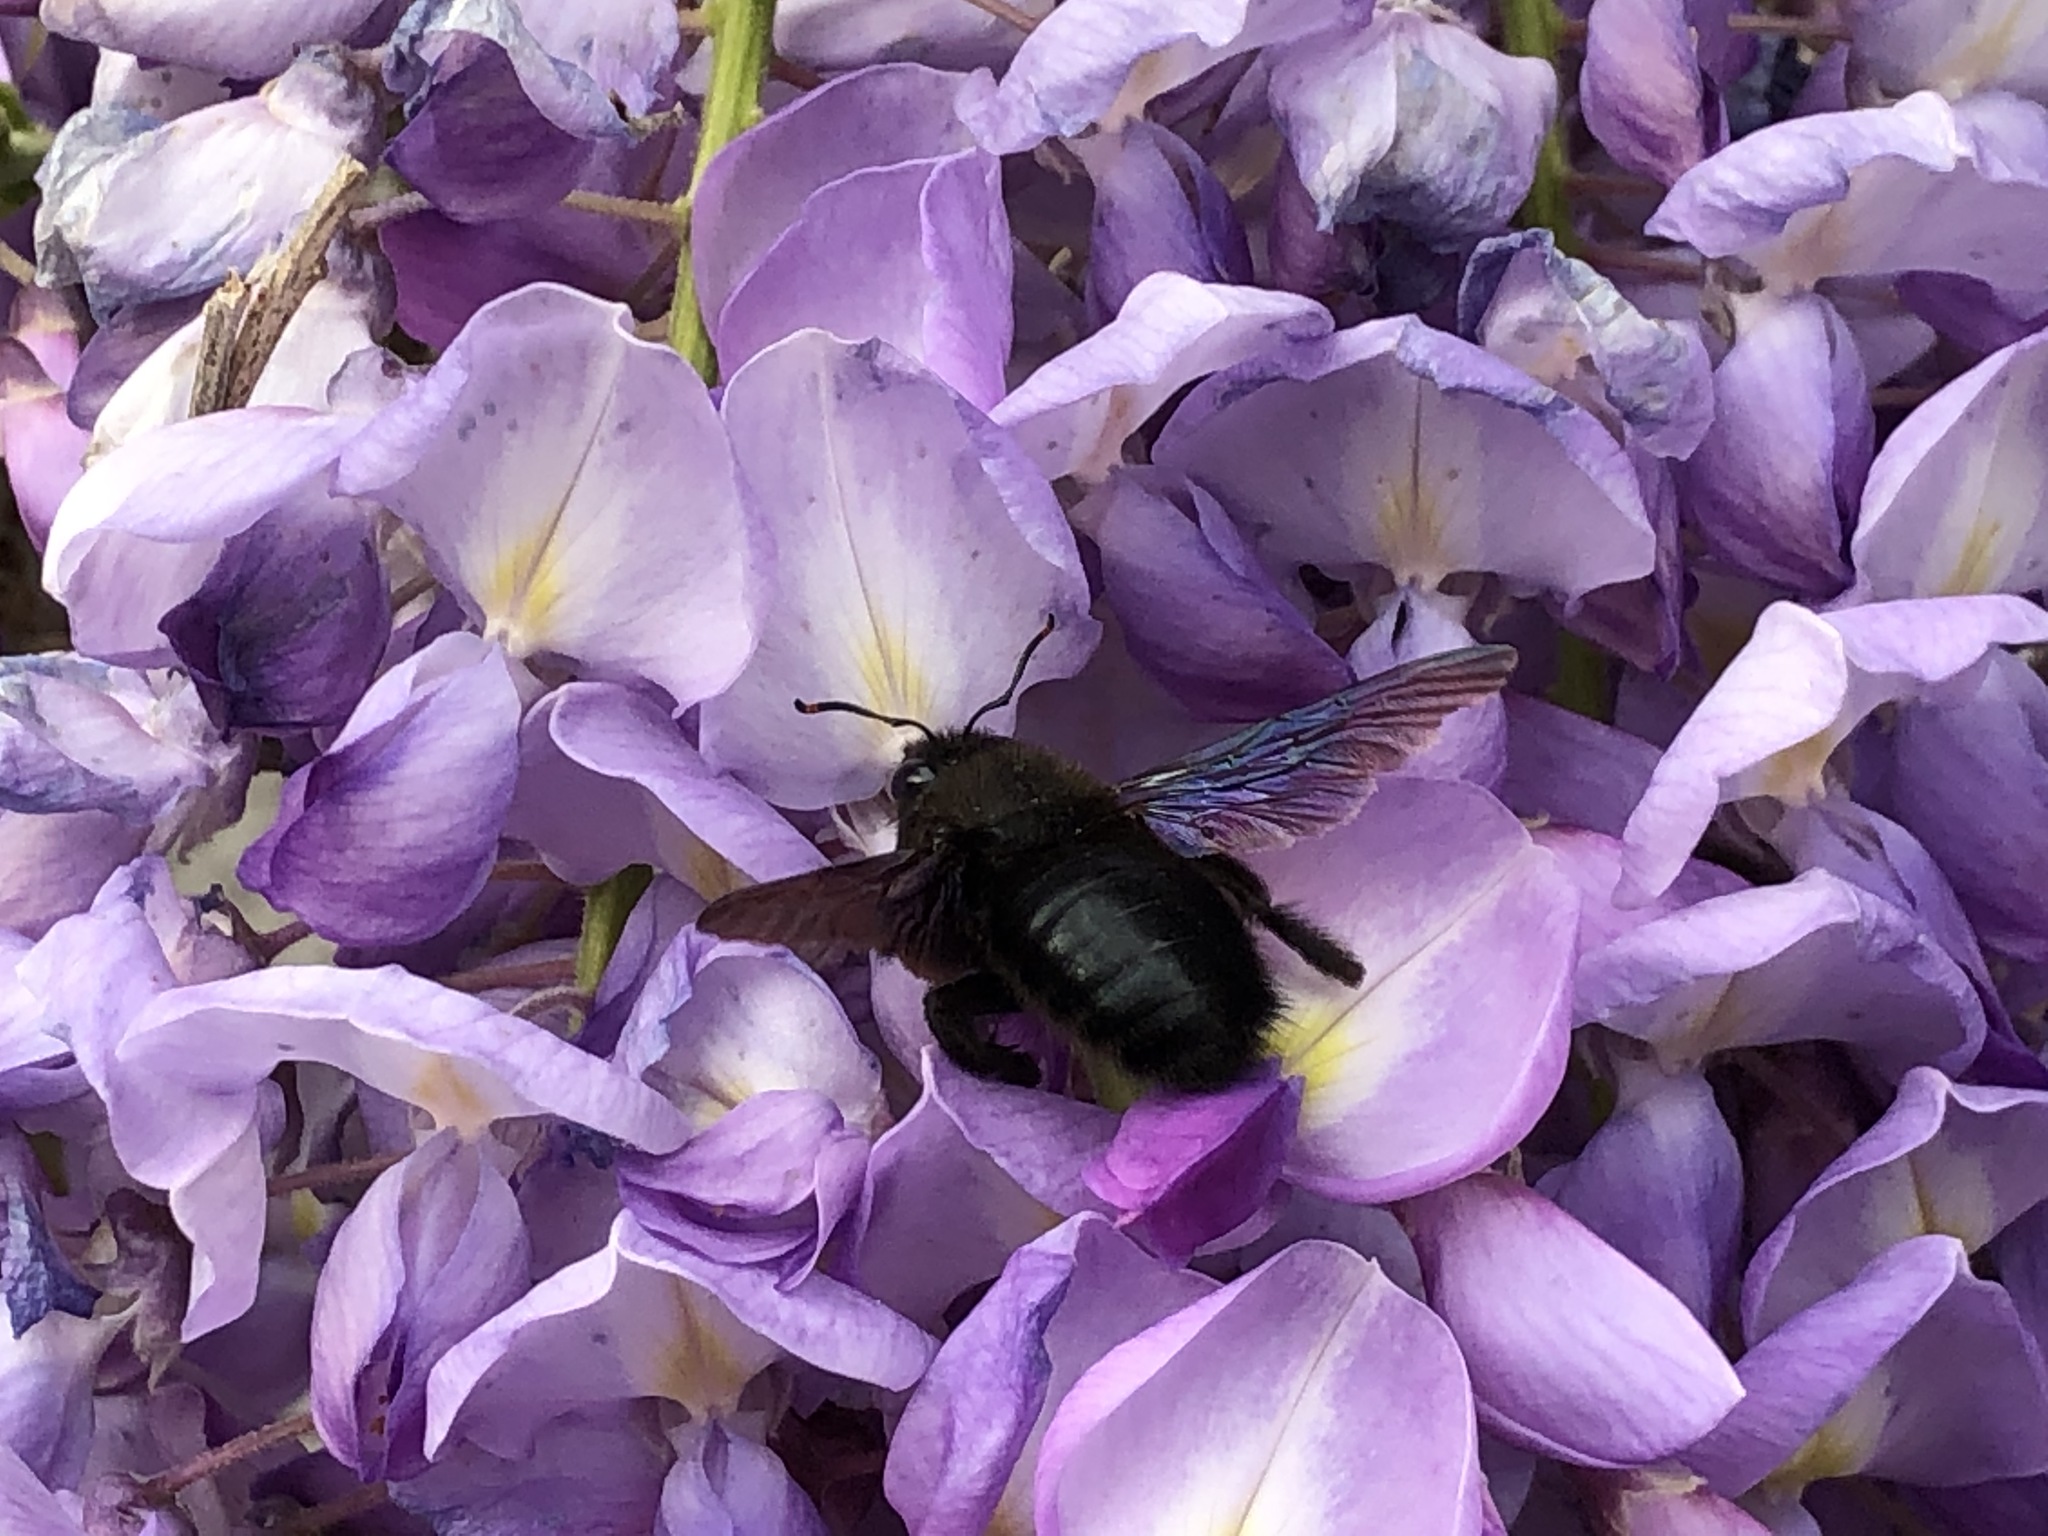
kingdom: Animalia
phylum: Arthropoda
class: Insecta
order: Hymenoptera
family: Apidae
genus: Xylocopa
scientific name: Xylocopa violacea
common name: Violet carpenter bee
